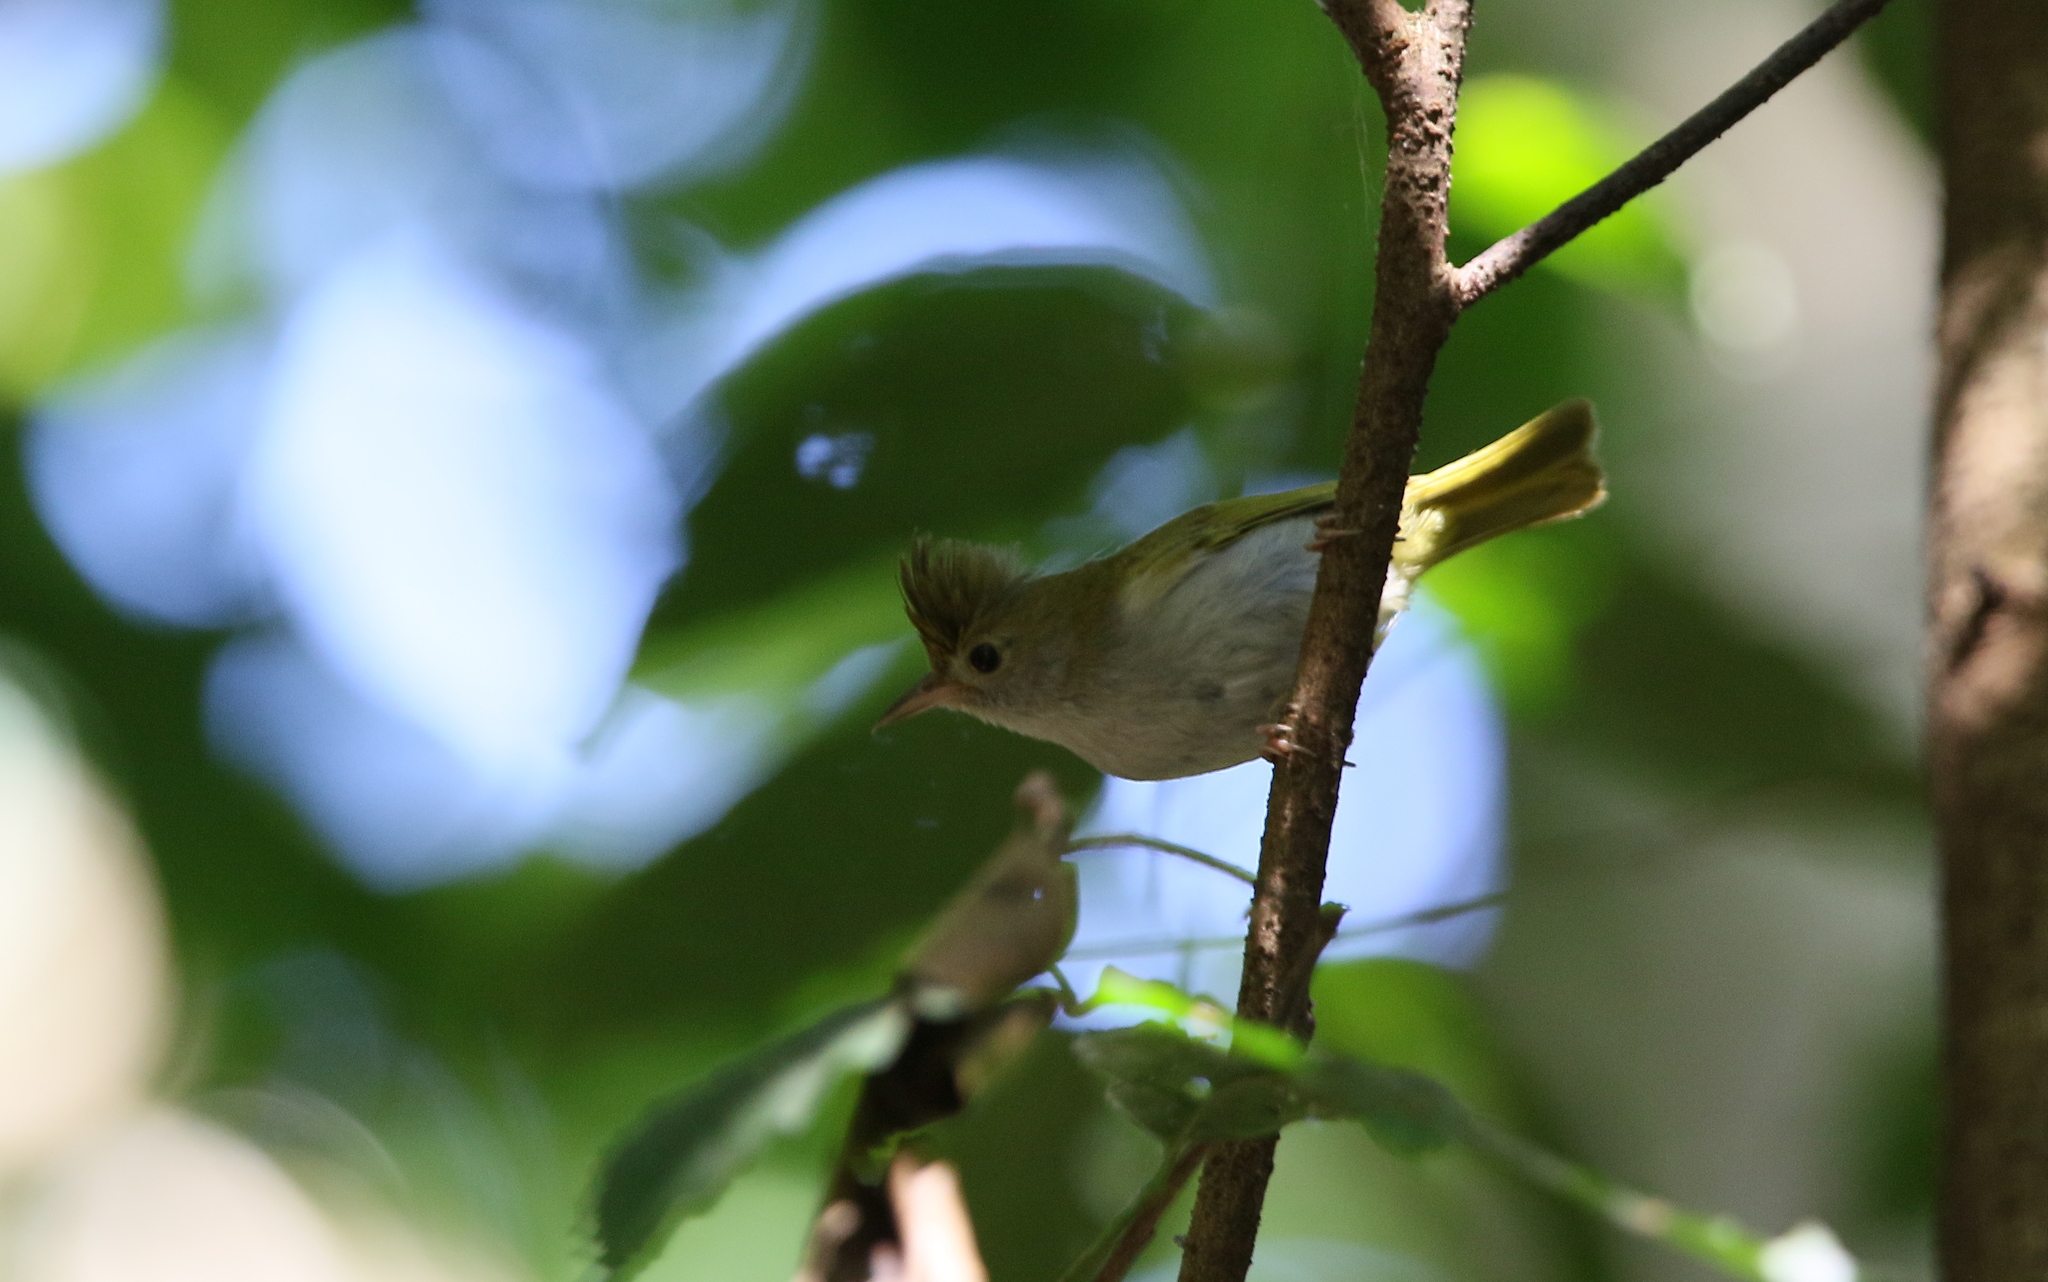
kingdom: Animalia
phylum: Chordata
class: Aves
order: Passeriformes
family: Vireonidae
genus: Erpornis
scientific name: Erpornis zantholeuca
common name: White-bellied erpornis
